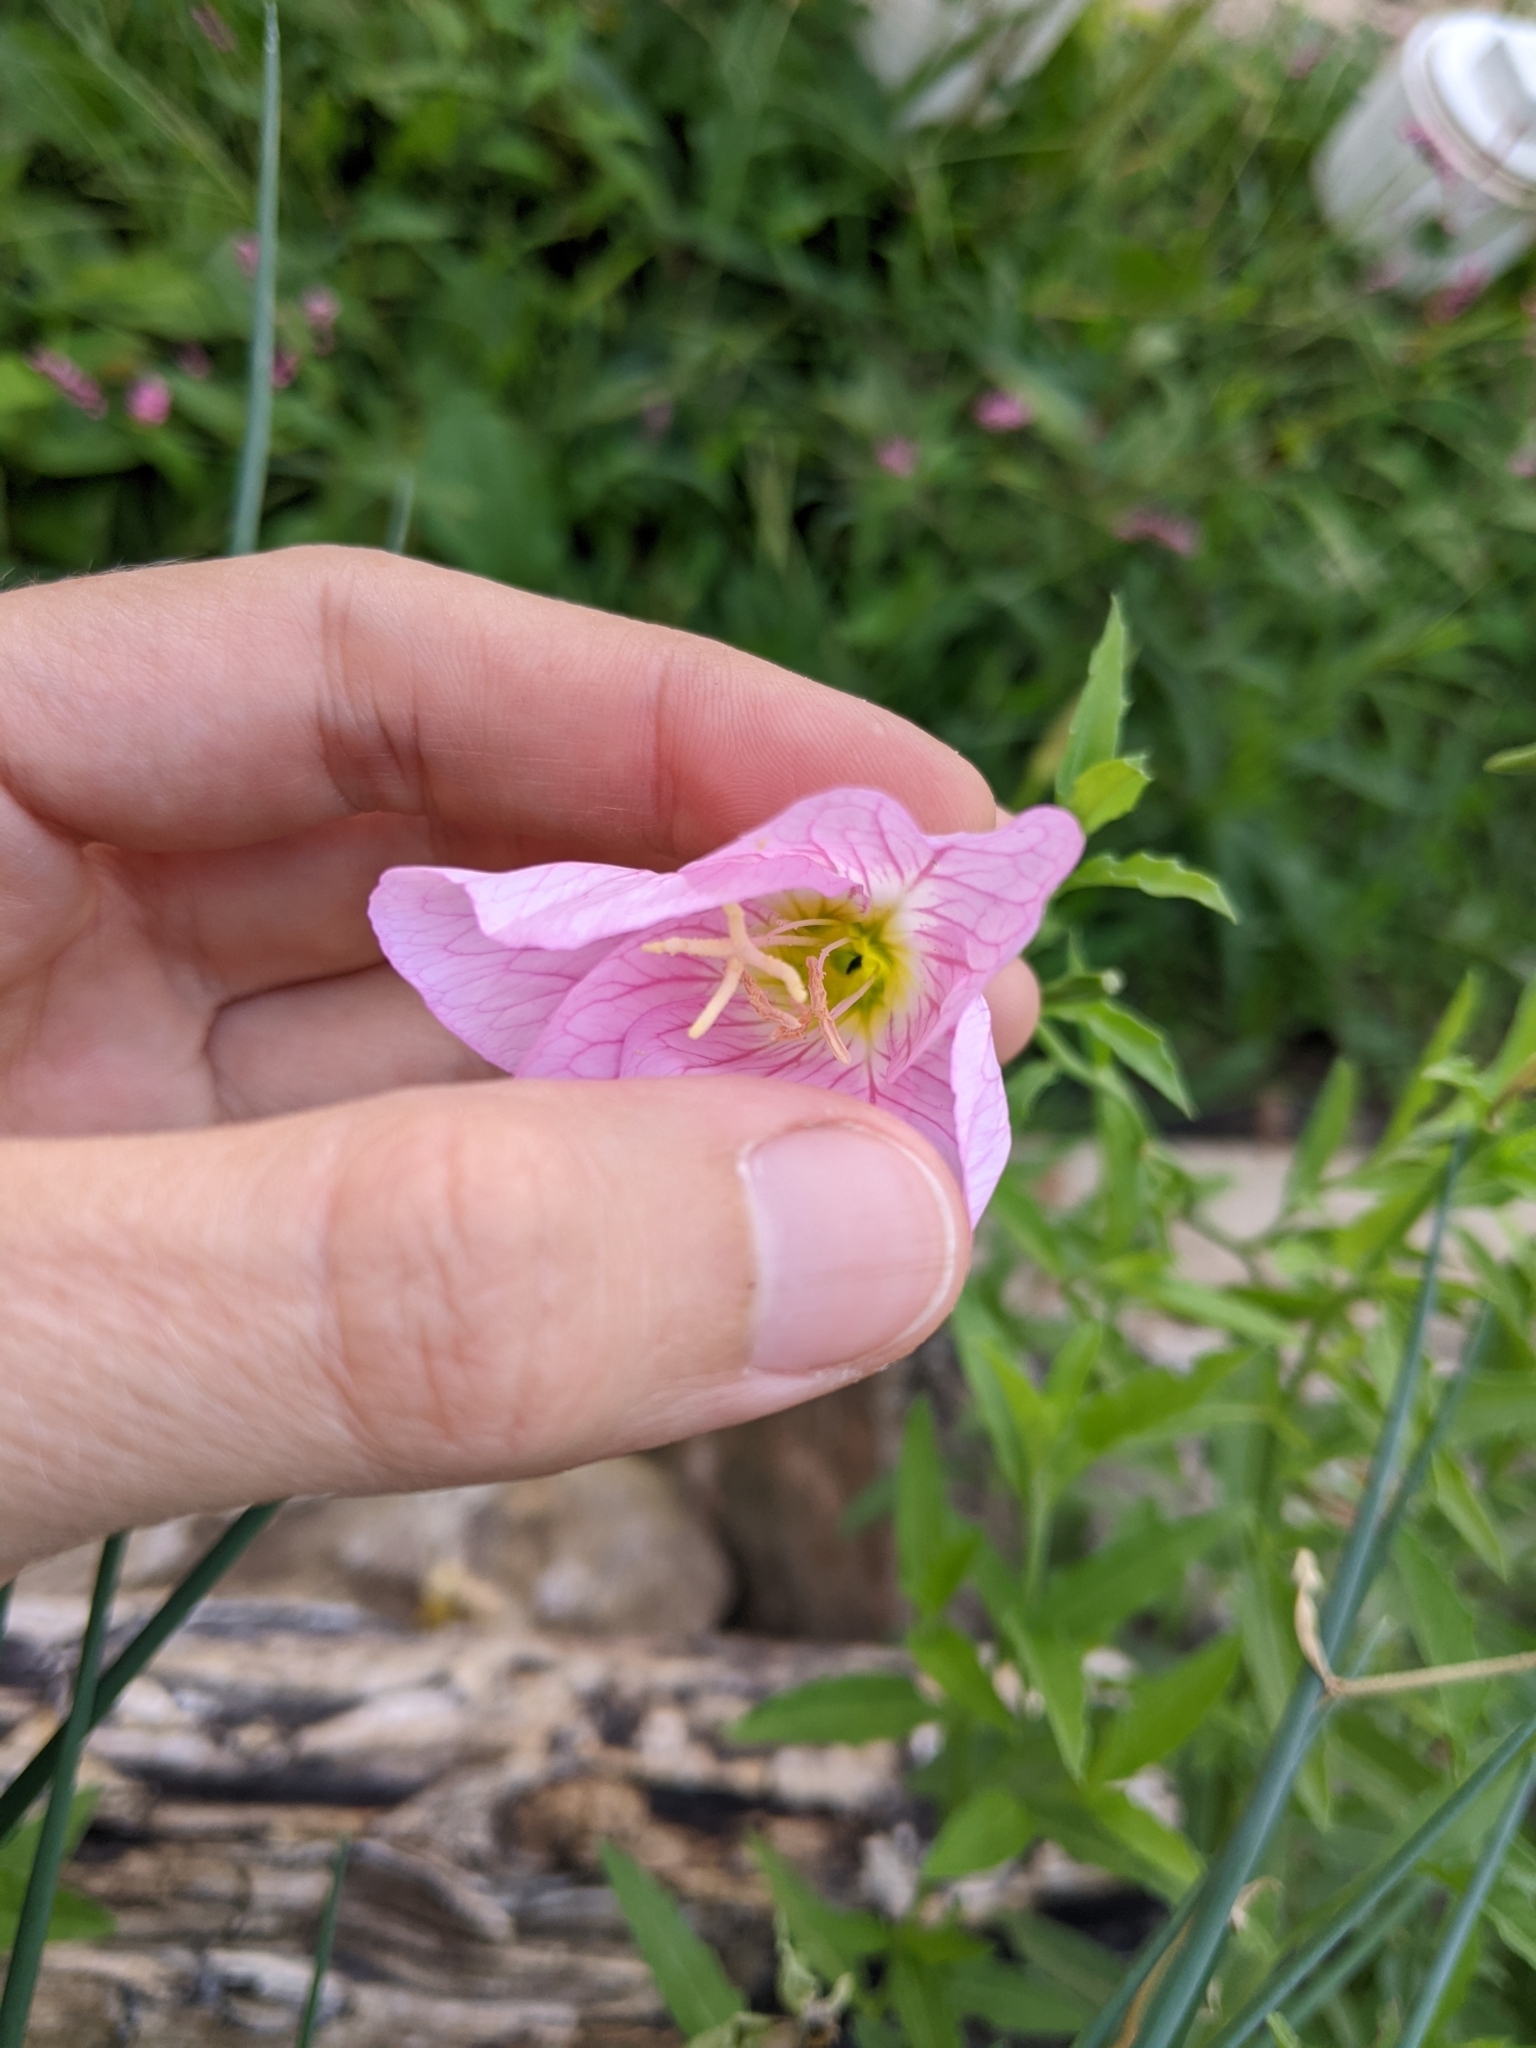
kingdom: Plantae
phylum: Tracheophyta
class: Magnoliopsida
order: Myrtales
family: Onagraceae
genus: Oenothera
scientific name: Oenothera speciosa
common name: White evening-primrose
